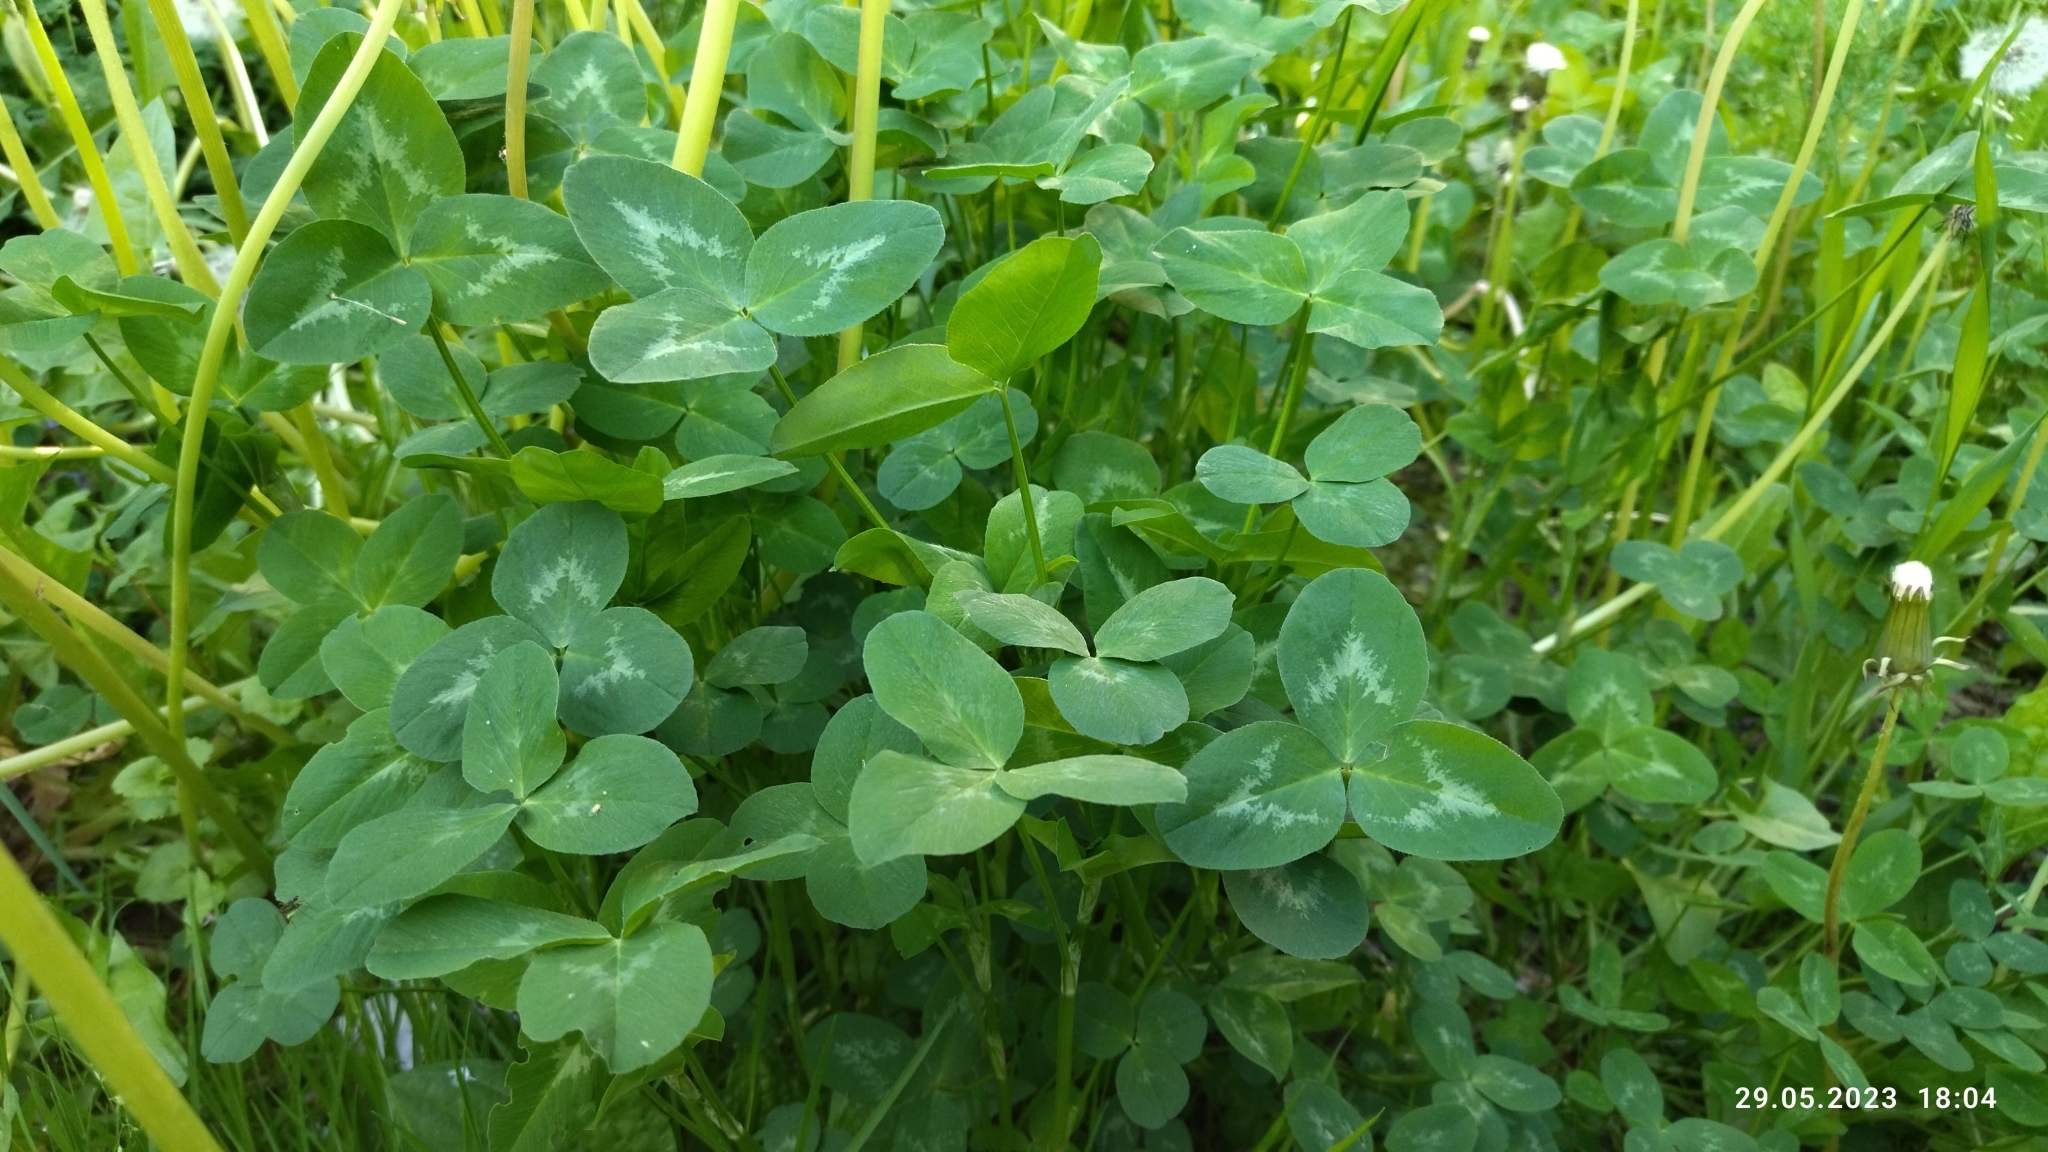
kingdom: Plantae
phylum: Tracheophyta
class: Magnoliopsida
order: Fabales
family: Fabaceae
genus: Trifolium
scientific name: Trifolium pratense
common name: Red clover
